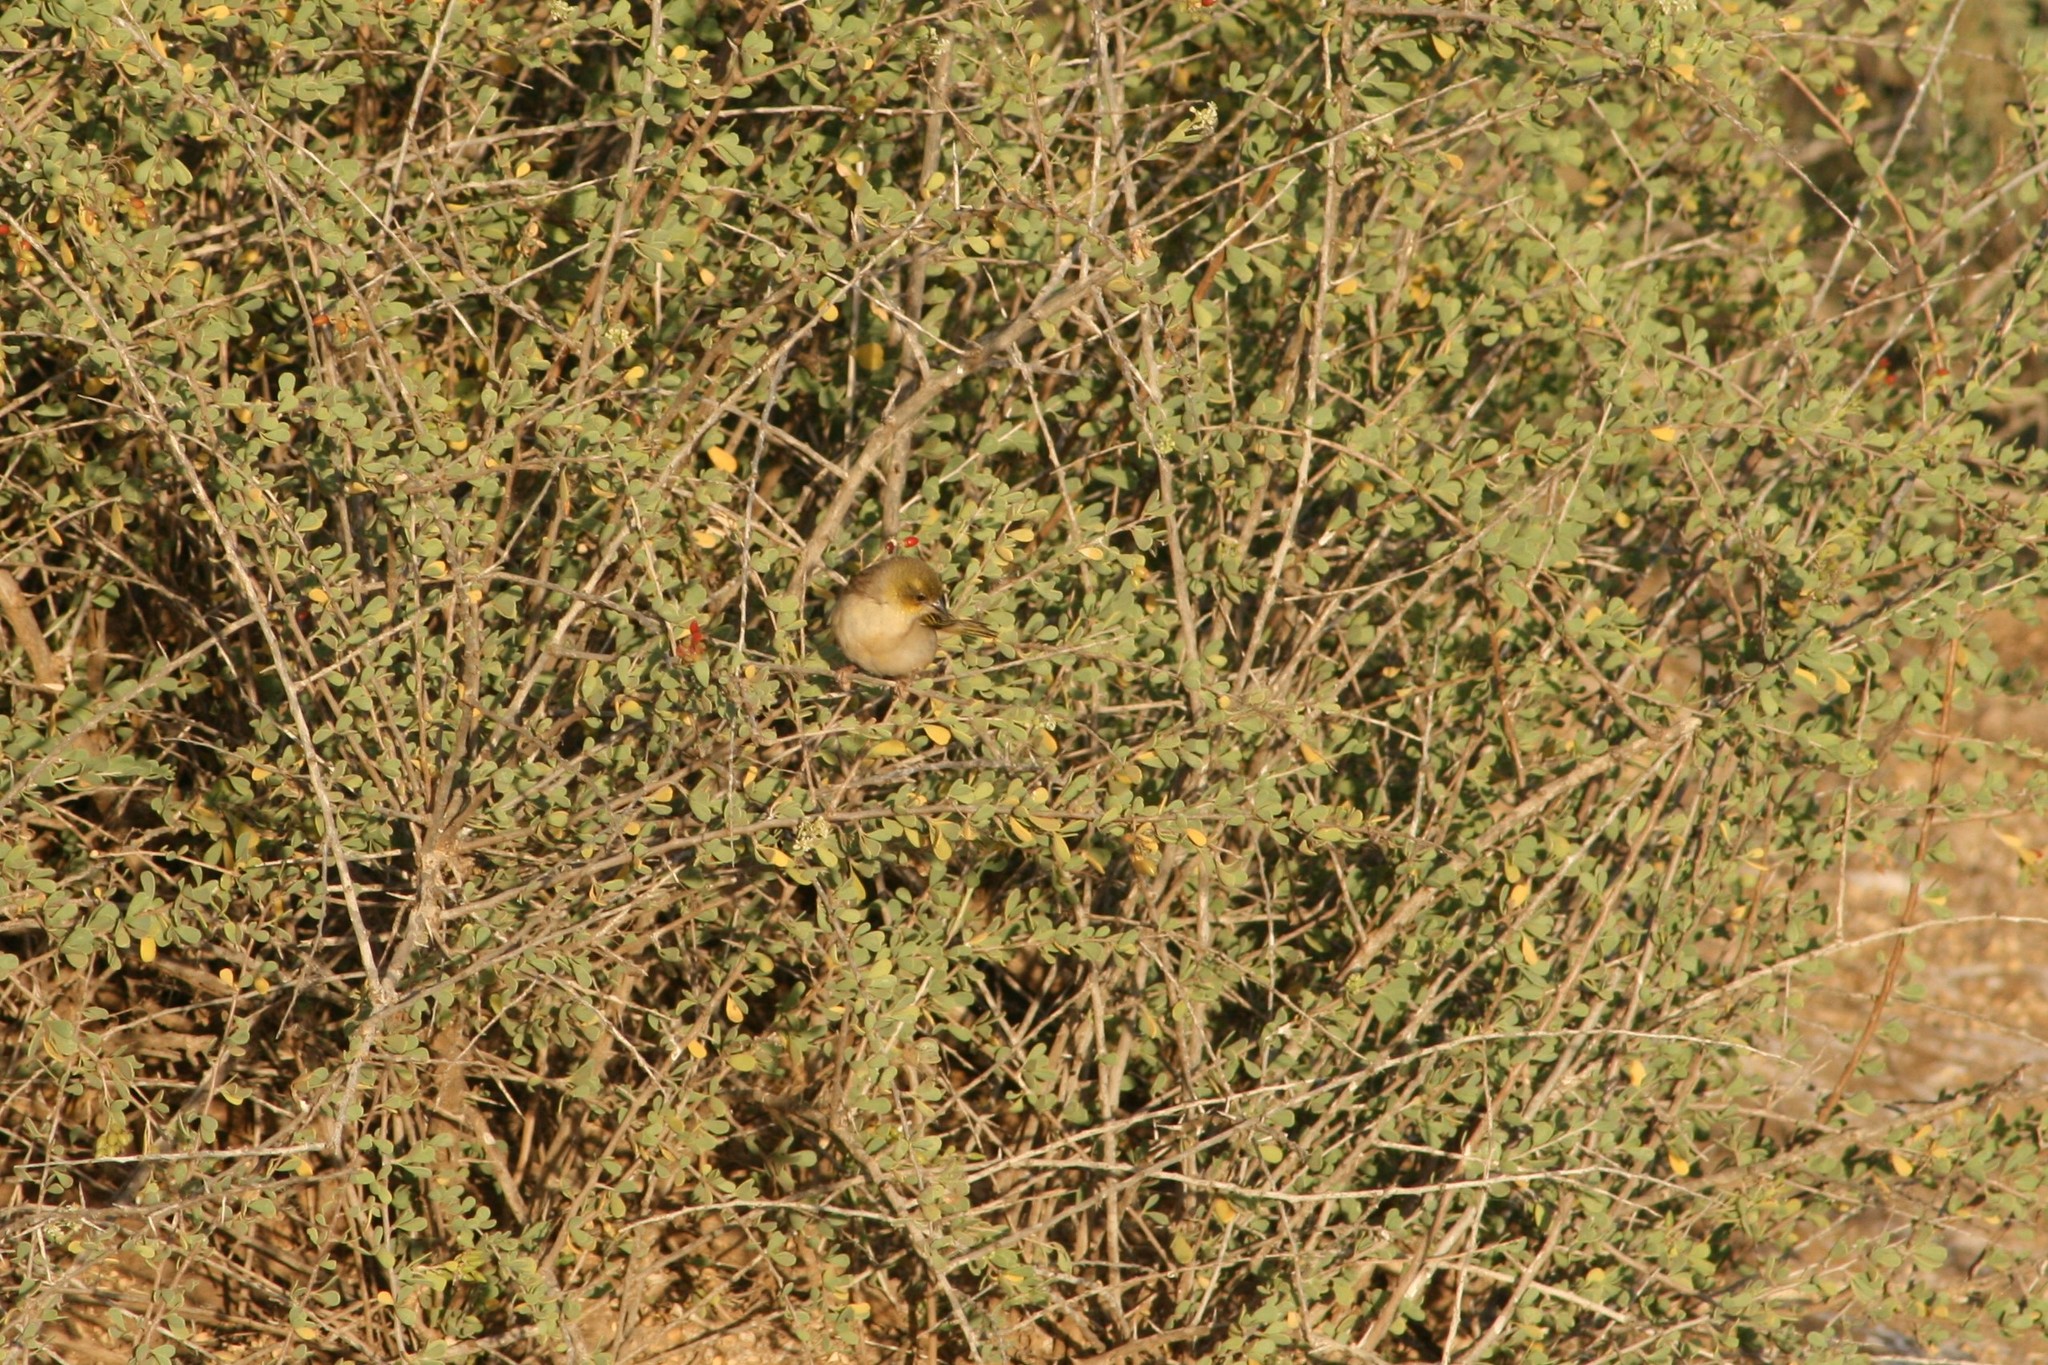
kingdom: Animalia
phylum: Chordata
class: Aves
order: Passeriformes
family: Ploceidae
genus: Ploceus
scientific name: Ploceus
